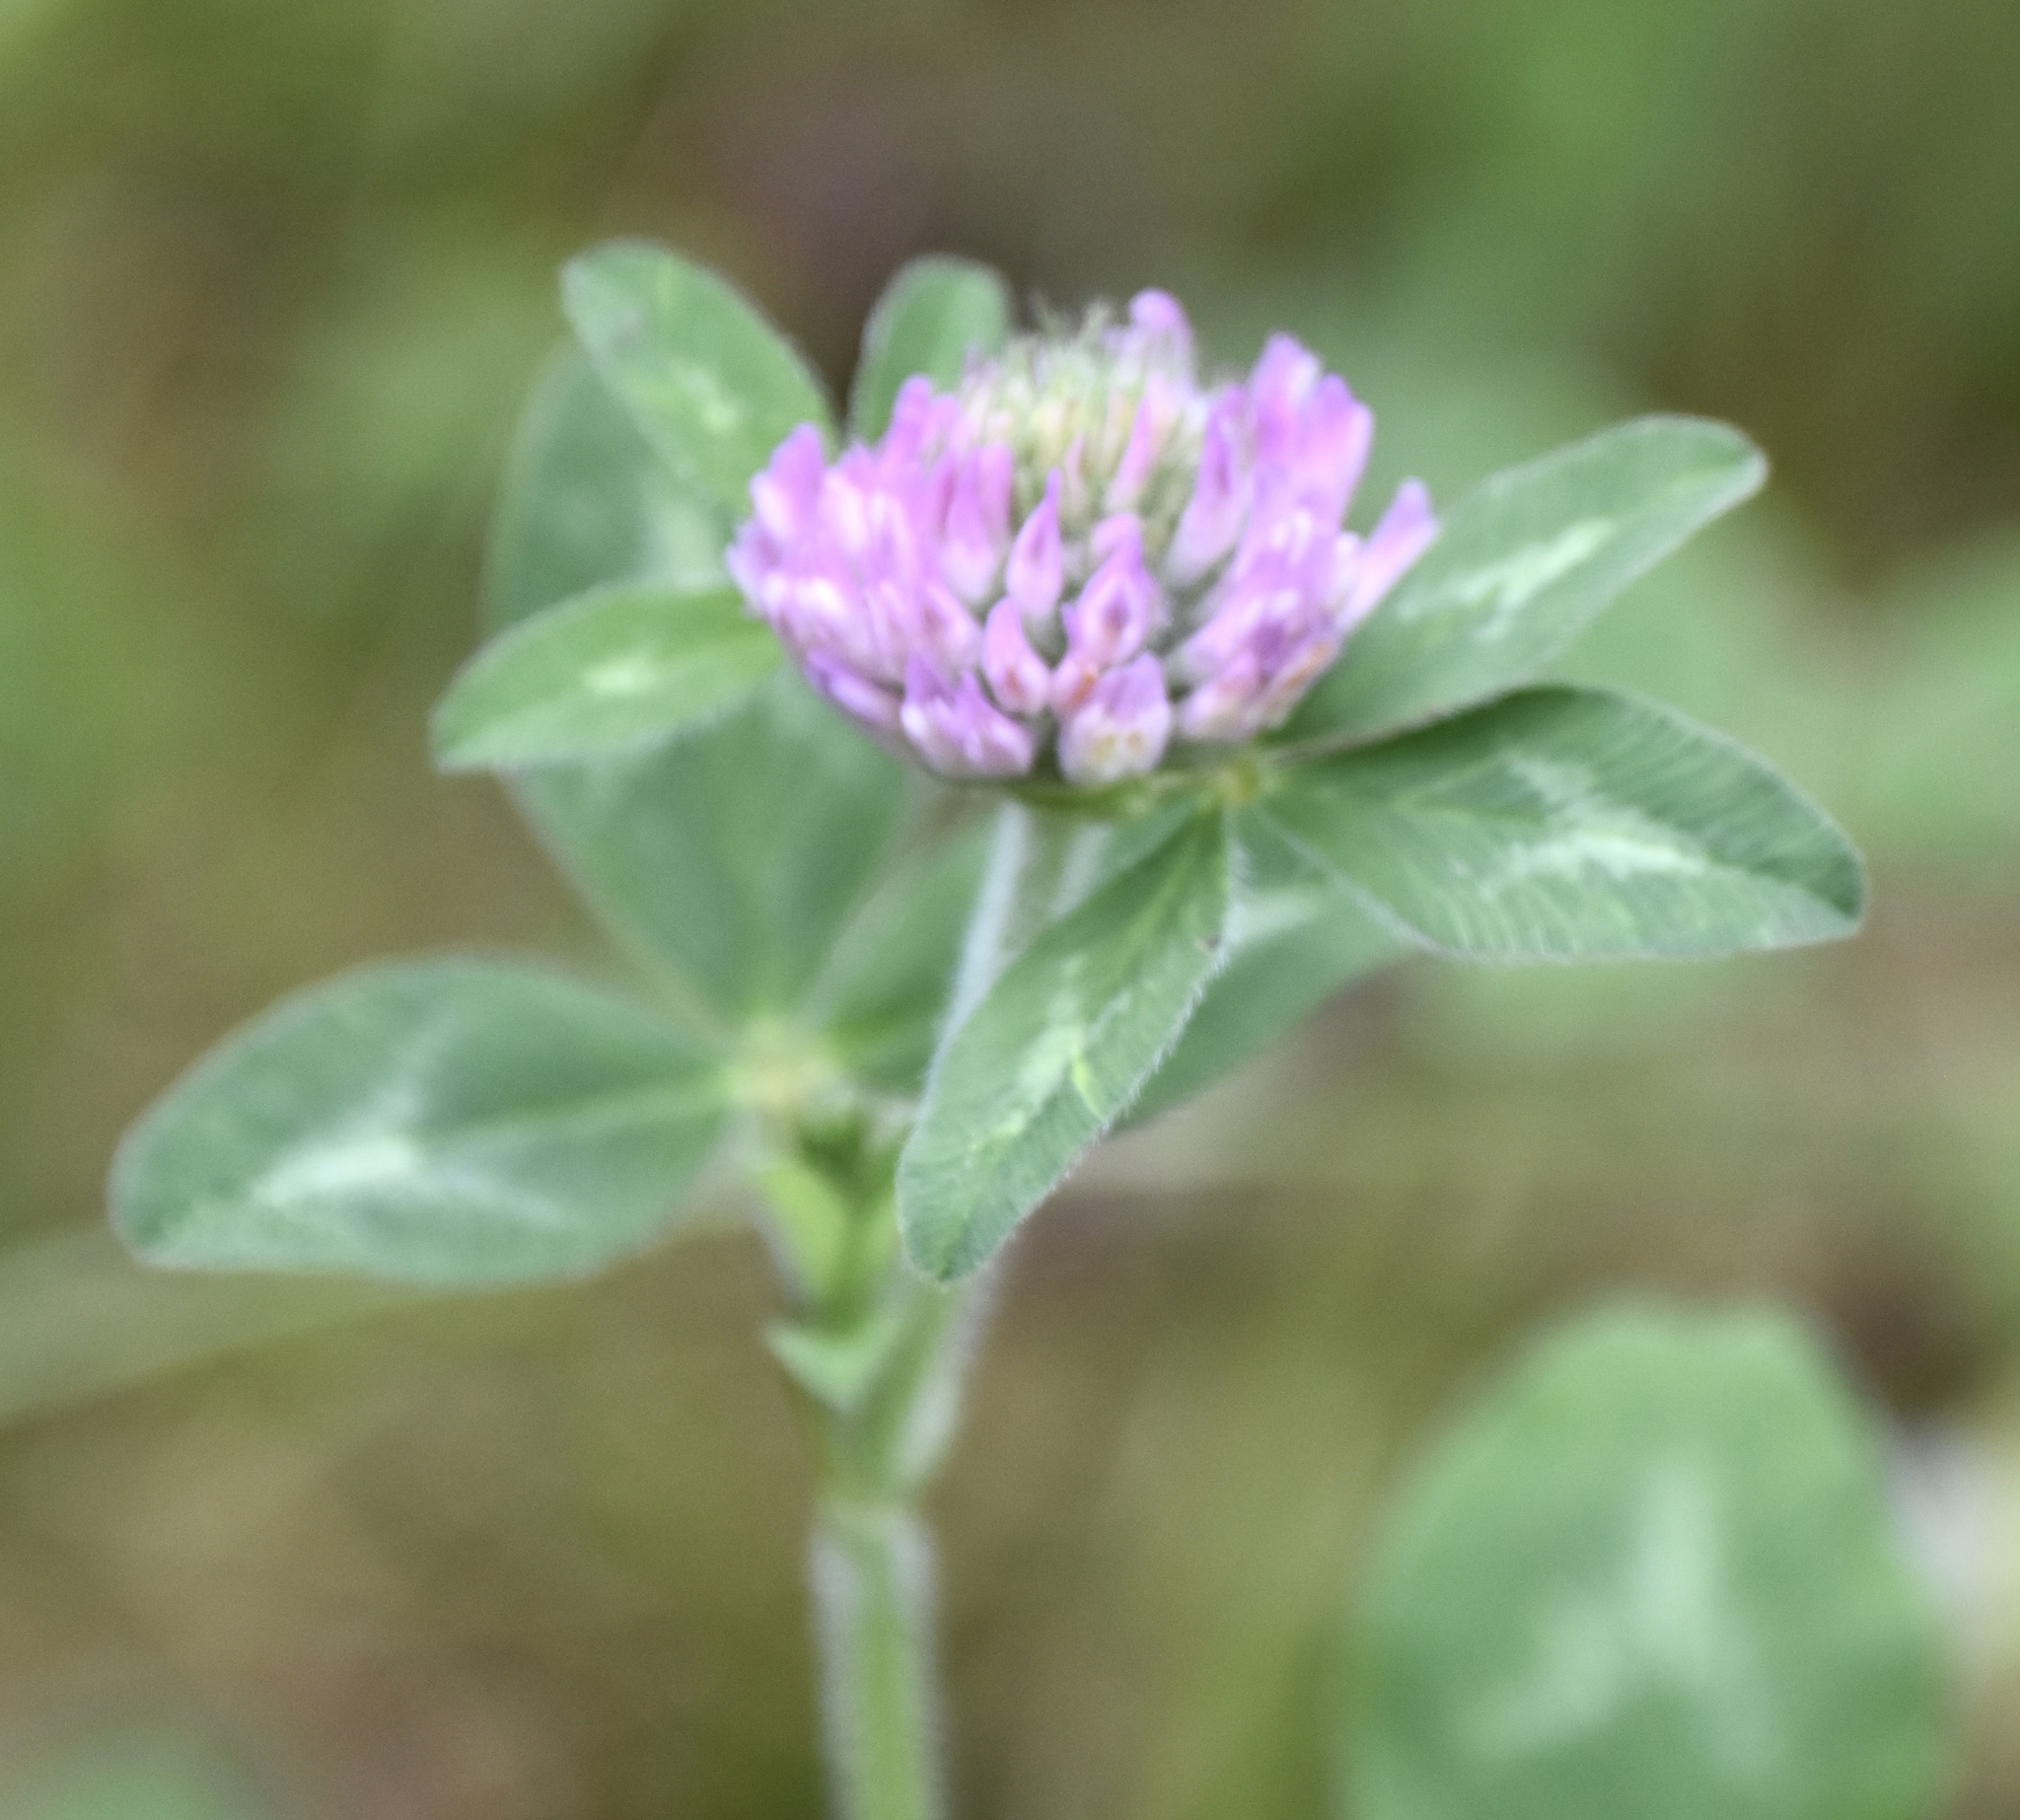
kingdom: Plantae
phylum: Tracheophyta
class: Magnoliopsida
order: Fabales
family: Fabaceae
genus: Trifolium
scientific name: Trifolium pratense
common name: Red clover
